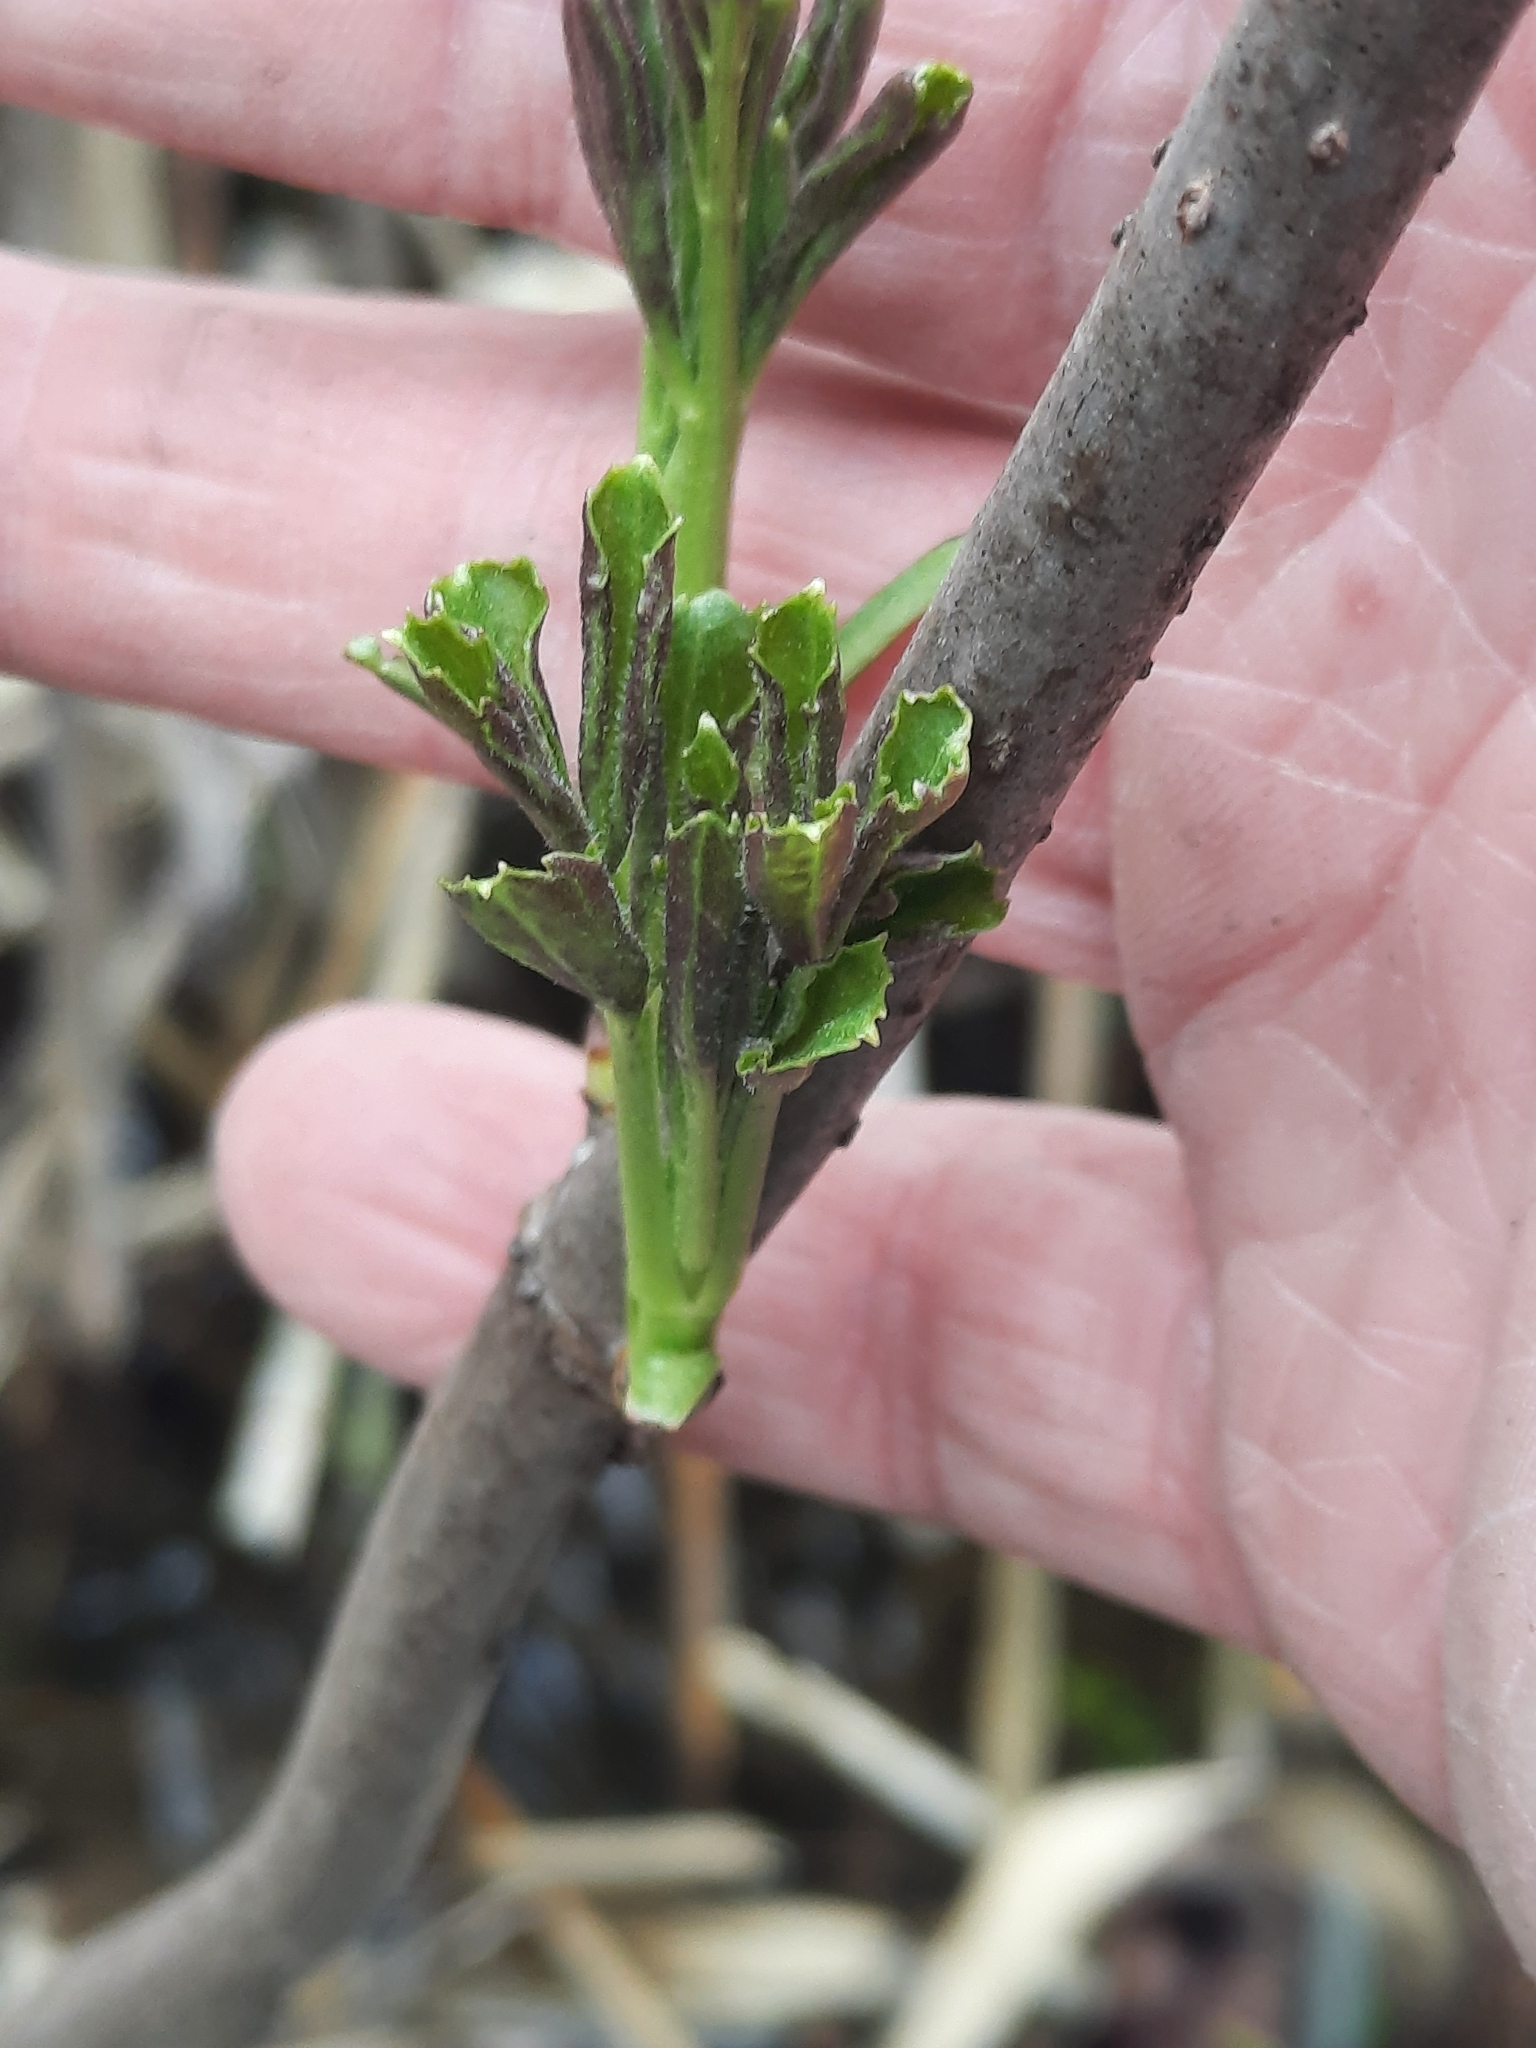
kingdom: Plantae
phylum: Tracheophyta
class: Magnoliopsida
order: Dipsacales
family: Viburnaceae
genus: Sambucus
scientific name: Sambucus canadensis
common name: American elder
